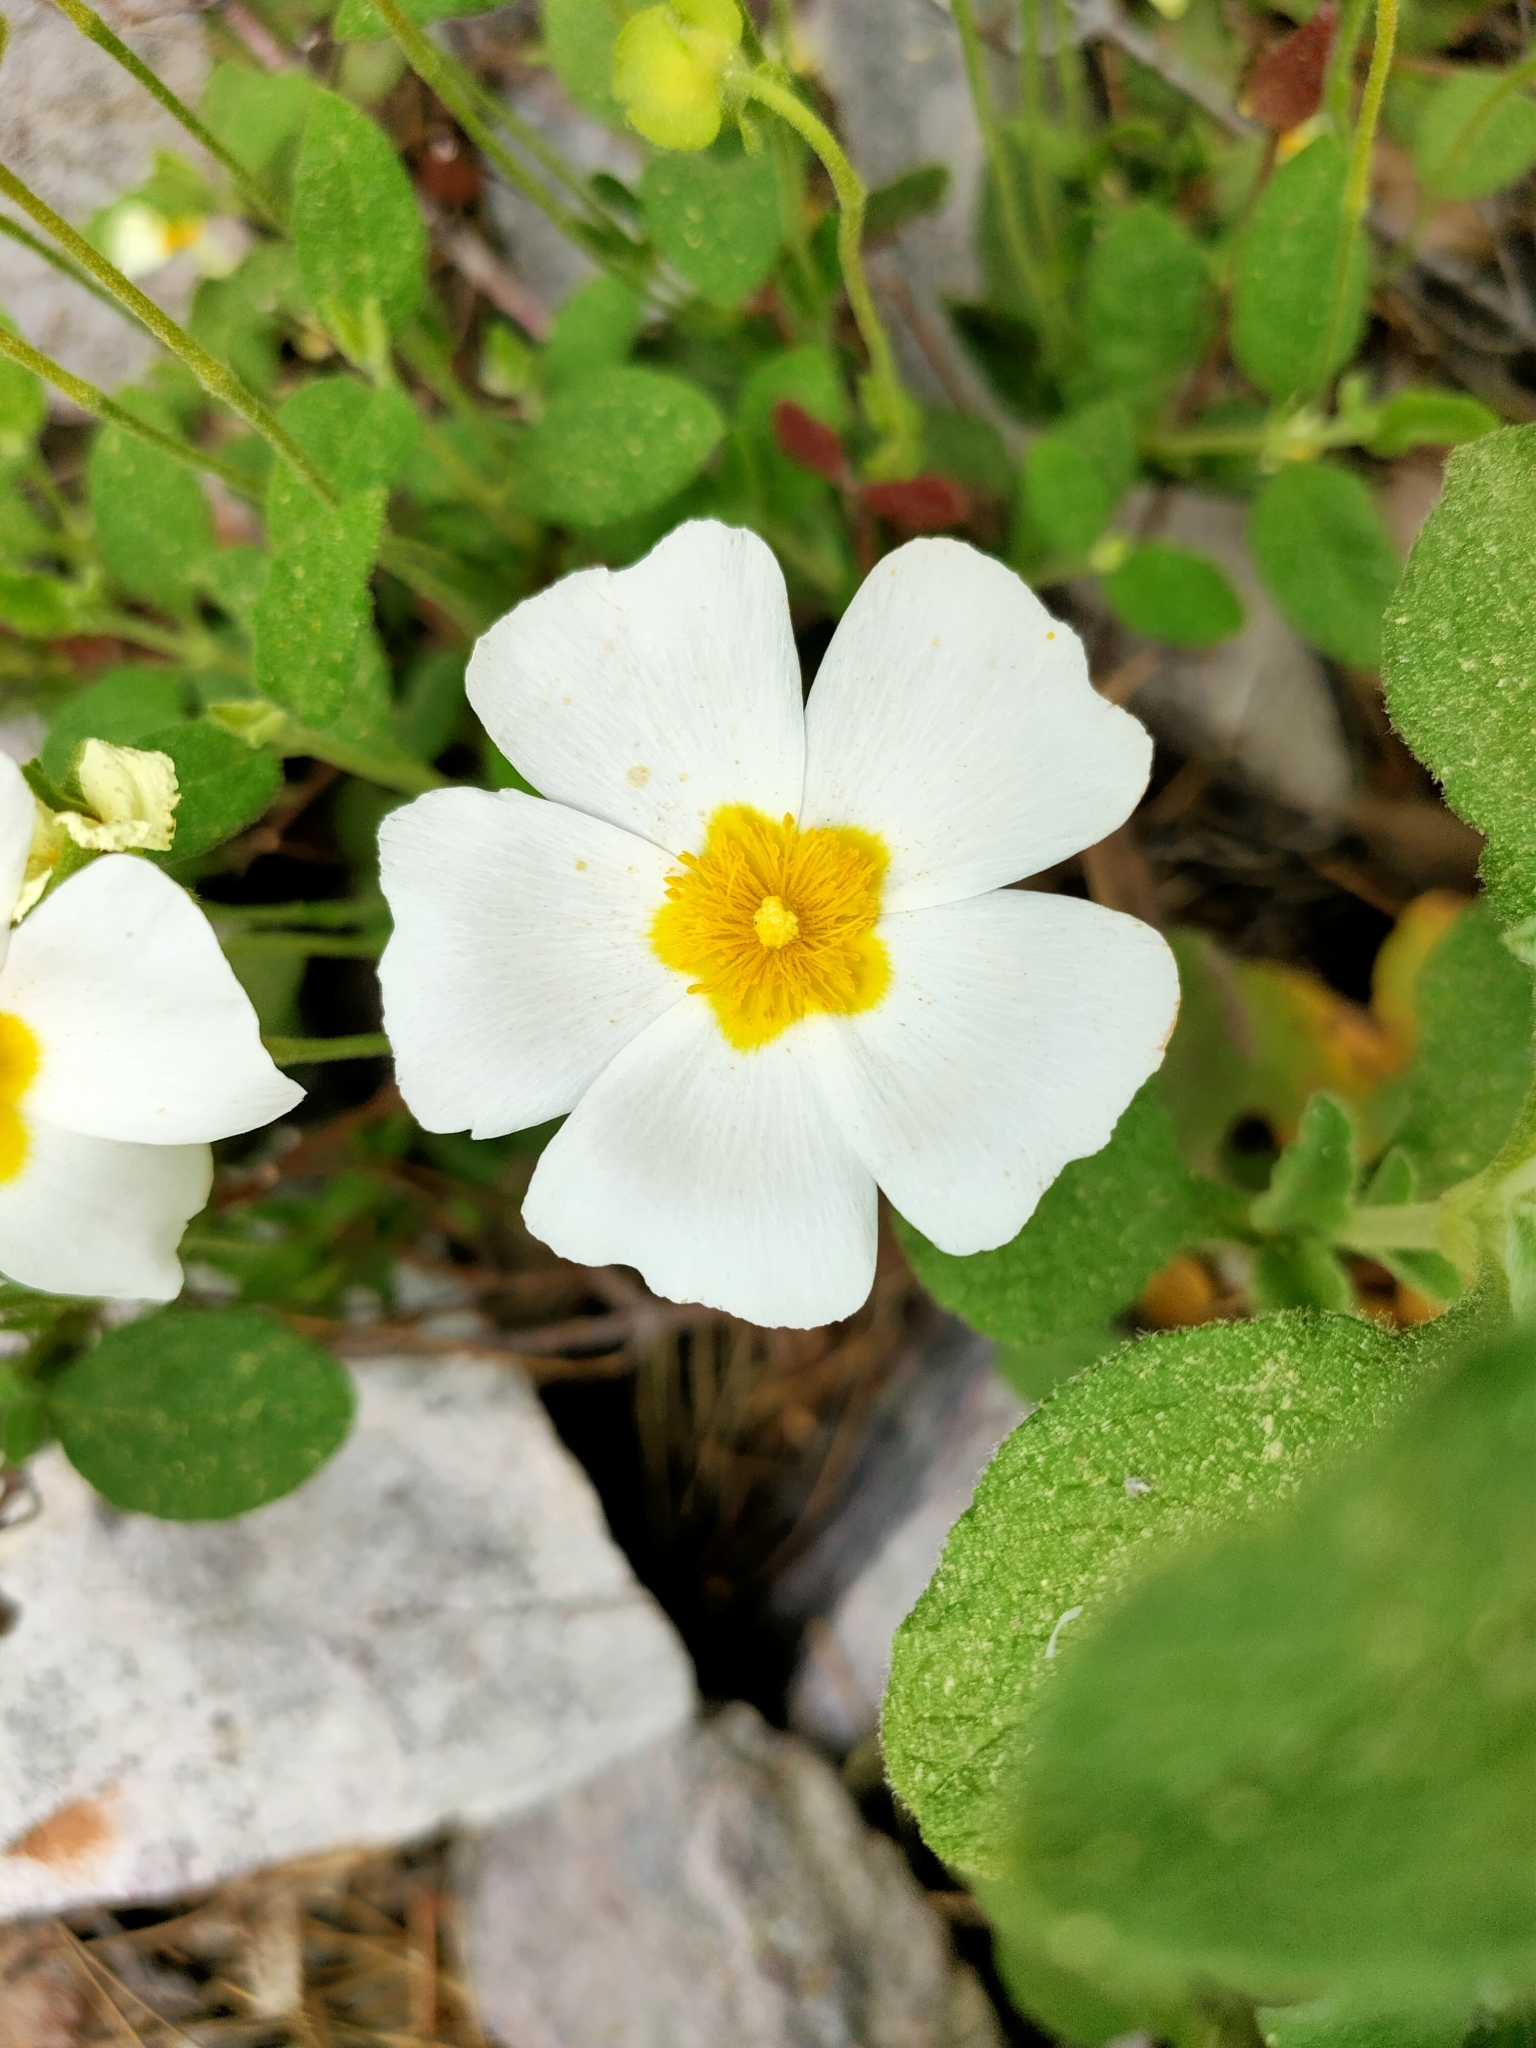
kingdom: Plantae
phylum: Tracheophyta
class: Magnoliopsida
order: Malvales
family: Cistaceae
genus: Cistus
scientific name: Cistus salviifolius
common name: Salvia cistus
